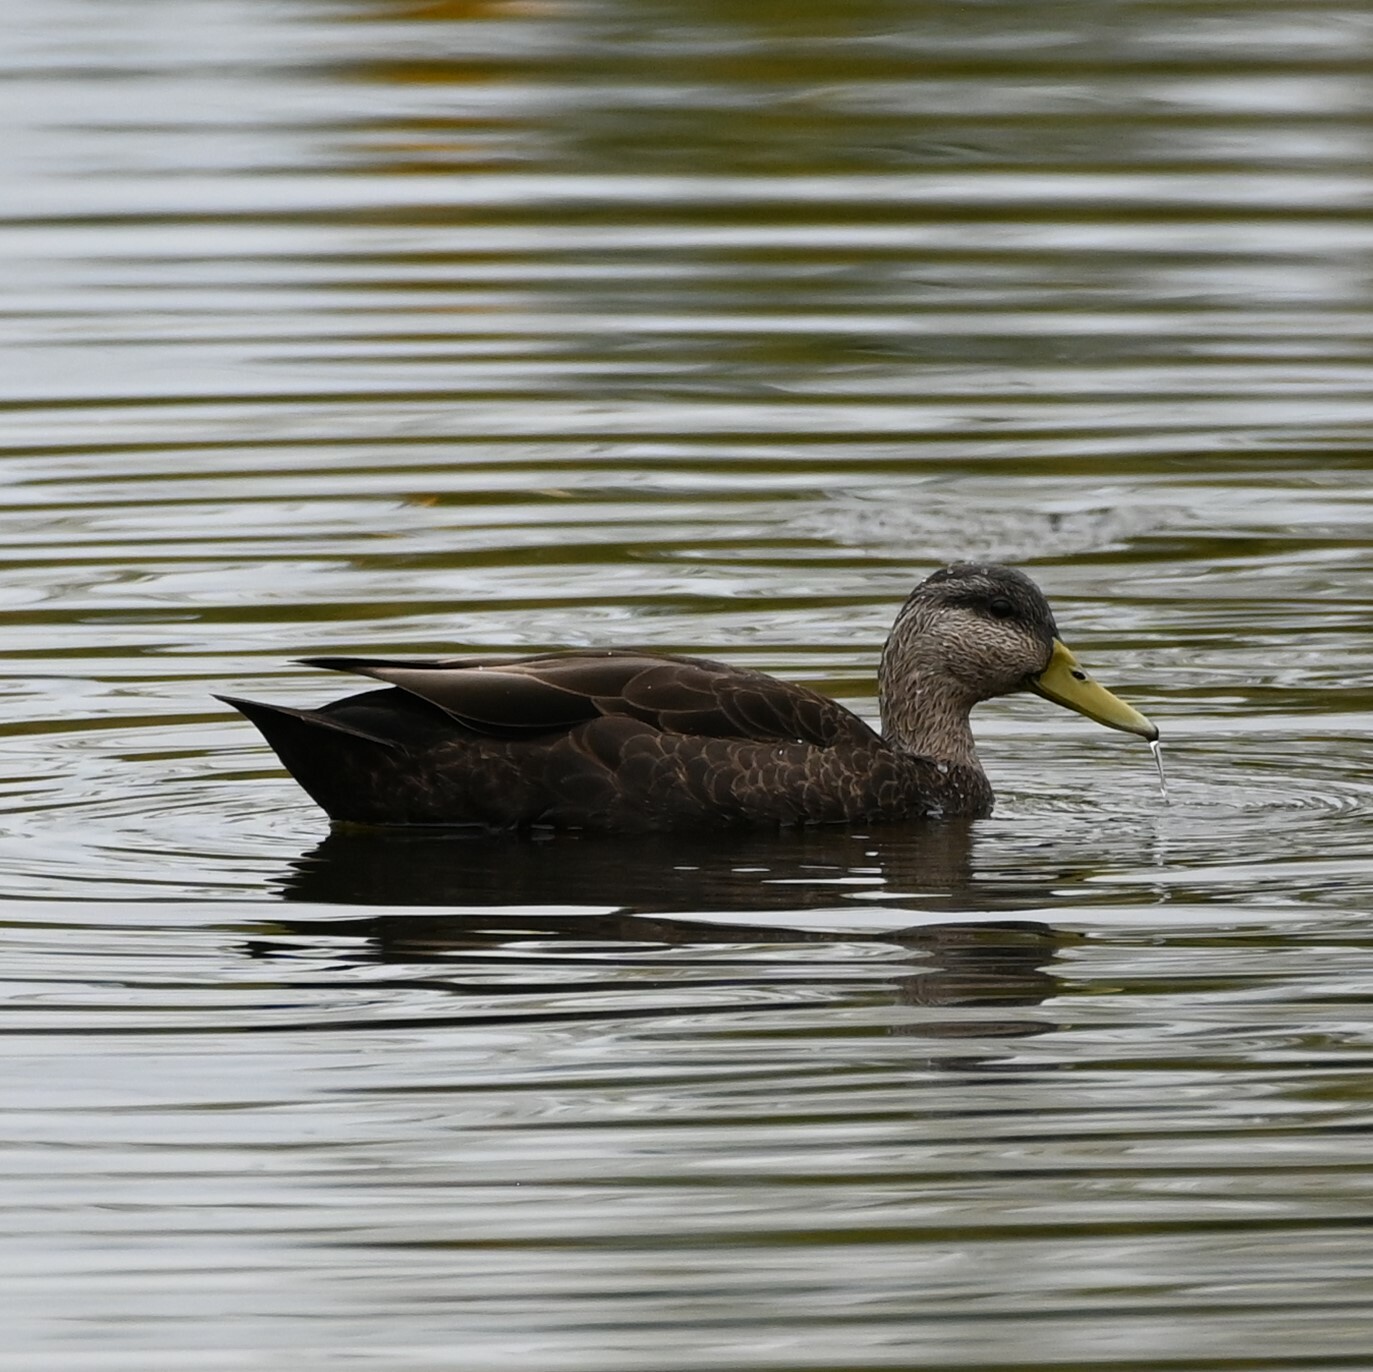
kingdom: Animalia
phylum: Chordata
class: Aves
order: Anseriformes
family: Anatidae
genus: Anas
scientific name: Anas rubripes
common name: American black duck
